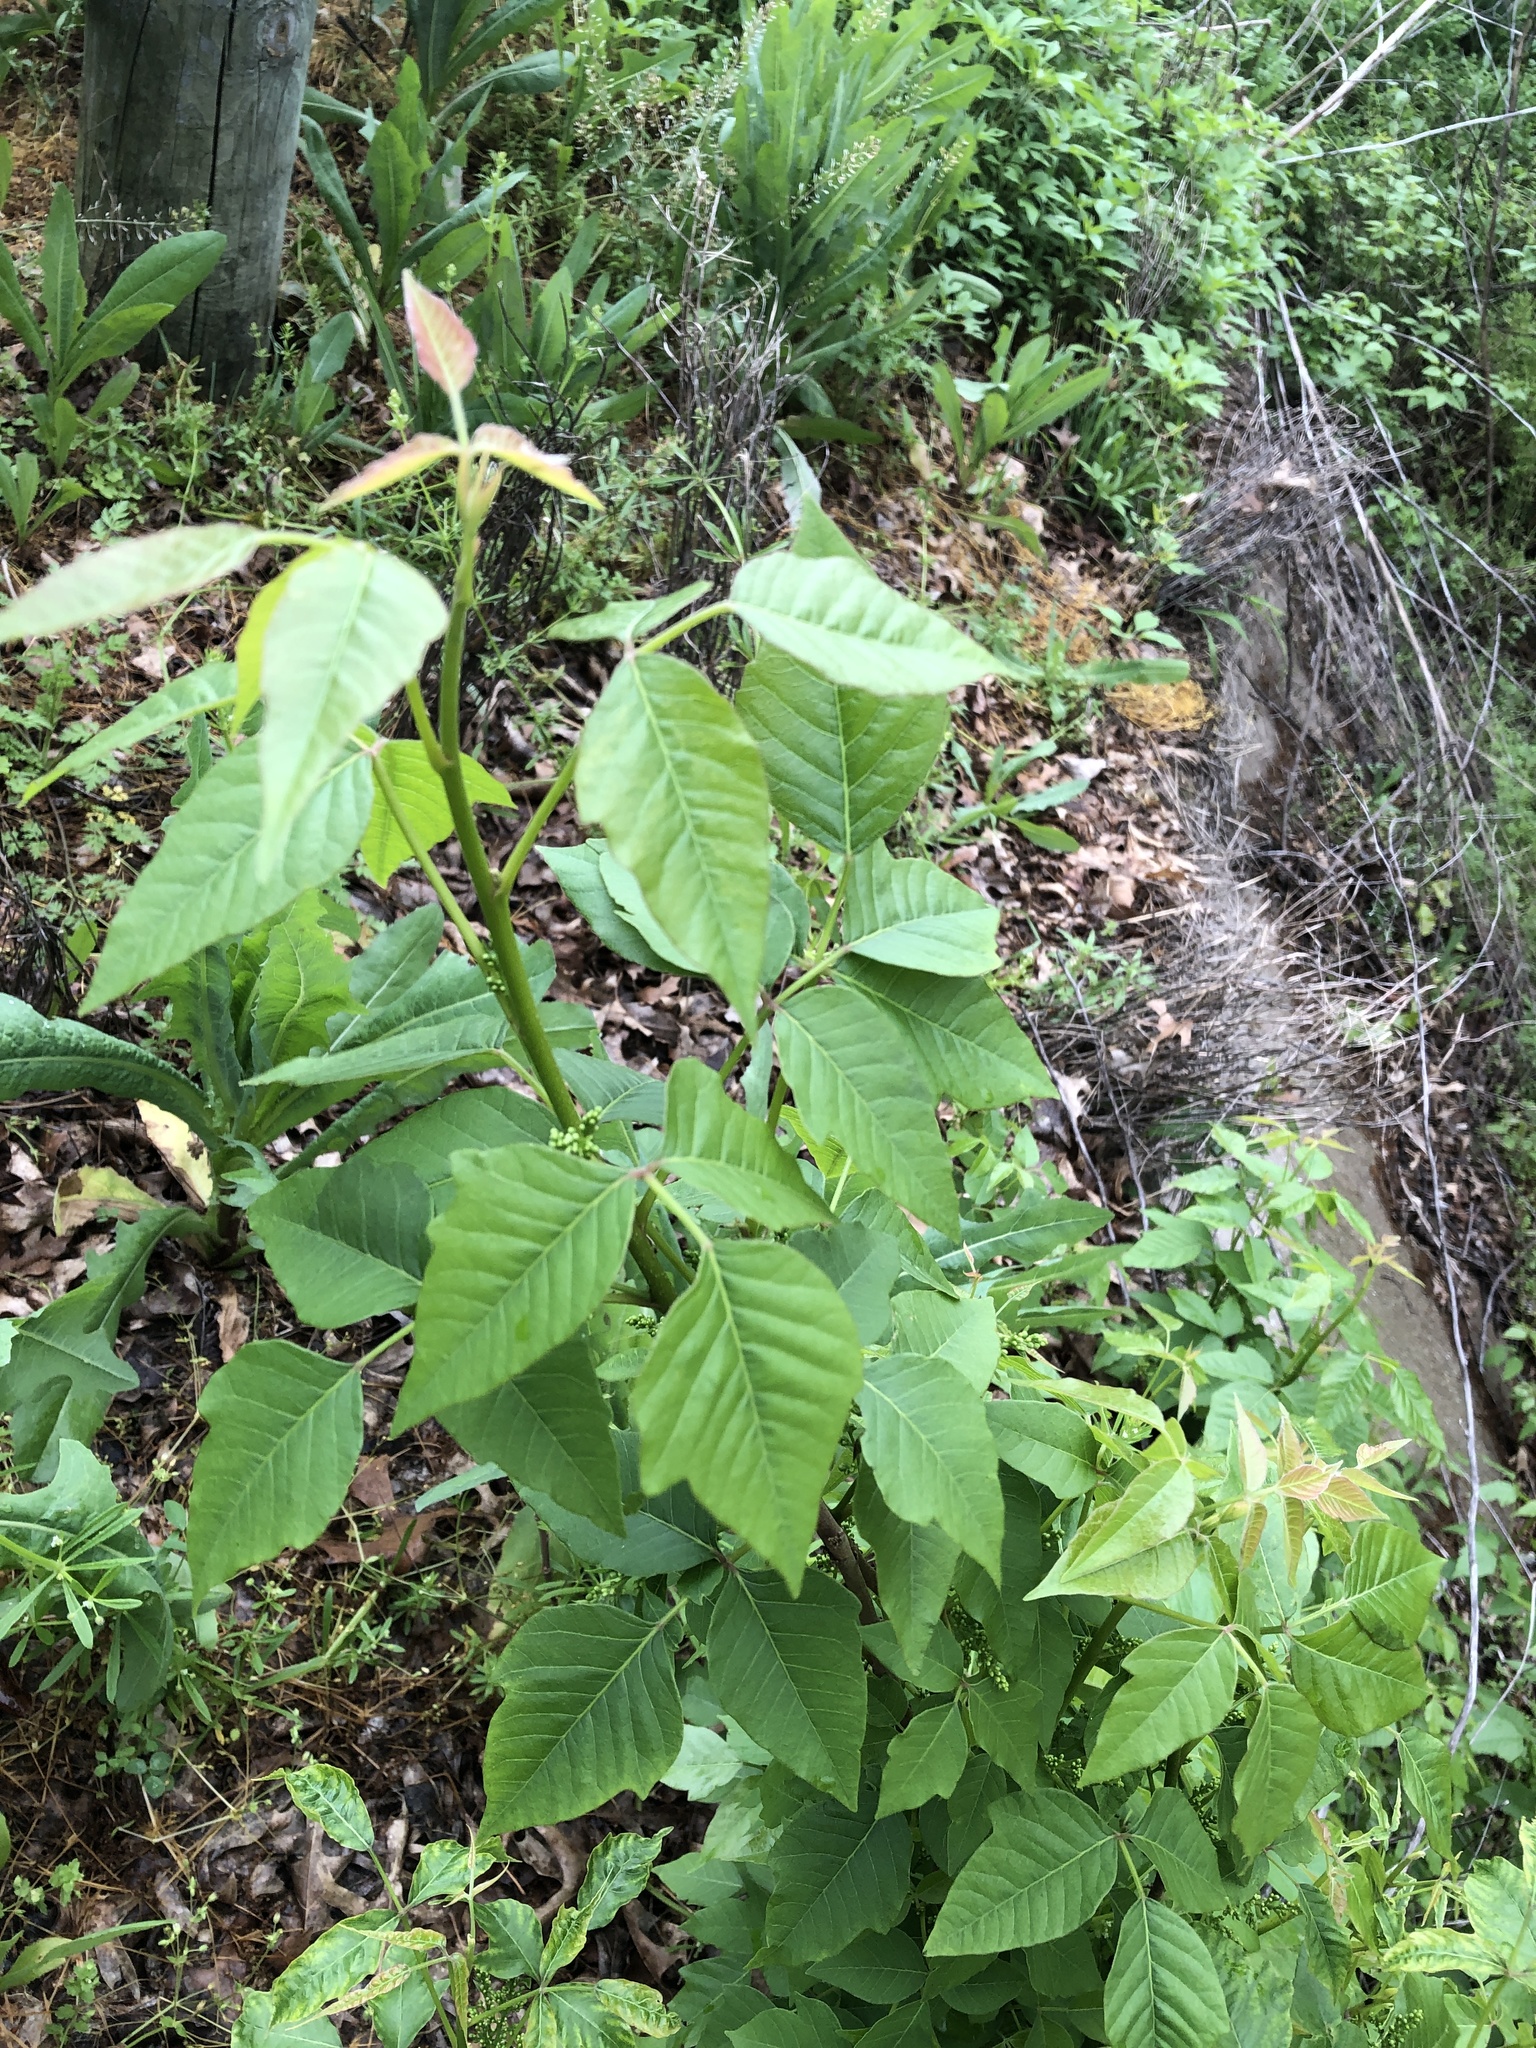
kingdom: Plantae
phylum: Tracheophyta
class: Magnoliopsida
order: Sapindales
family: Anacardiaceae
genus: Toxicodendron
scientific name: Toxicodendron radicans
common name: Poison ivy
